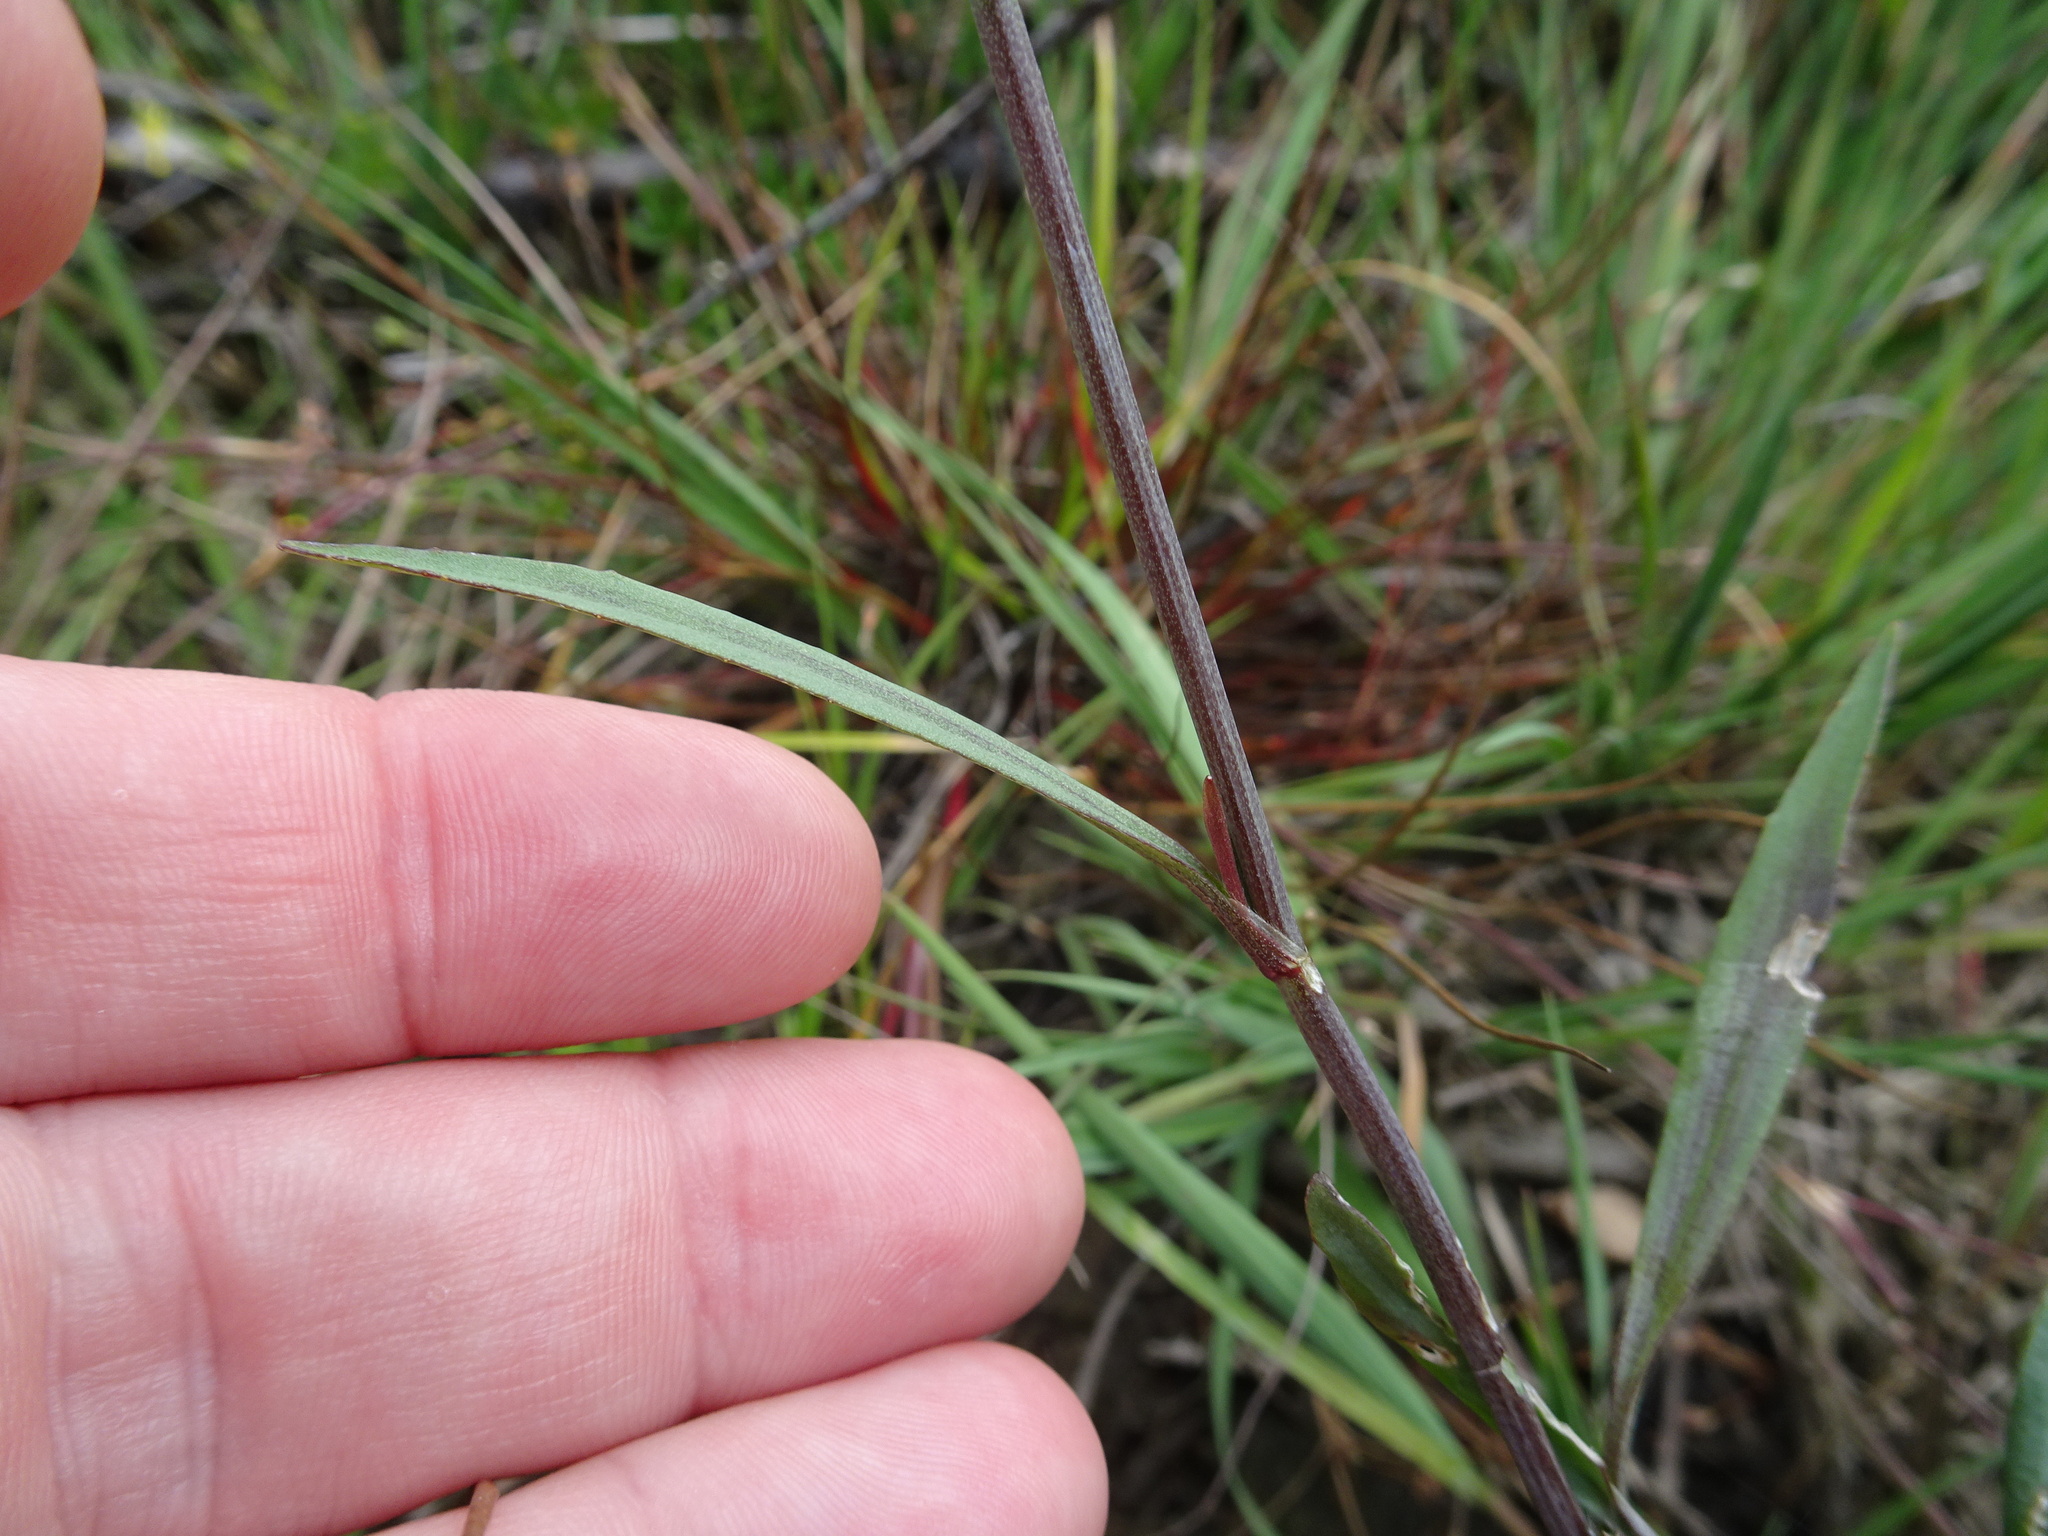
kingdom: Plantae
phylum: Tracheophyta
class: Magnoliopsida
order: Ranunculales
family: Ranunculaceae
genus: Ranunculus
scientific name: Ranunculus flammula
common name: Lesser spearwort
